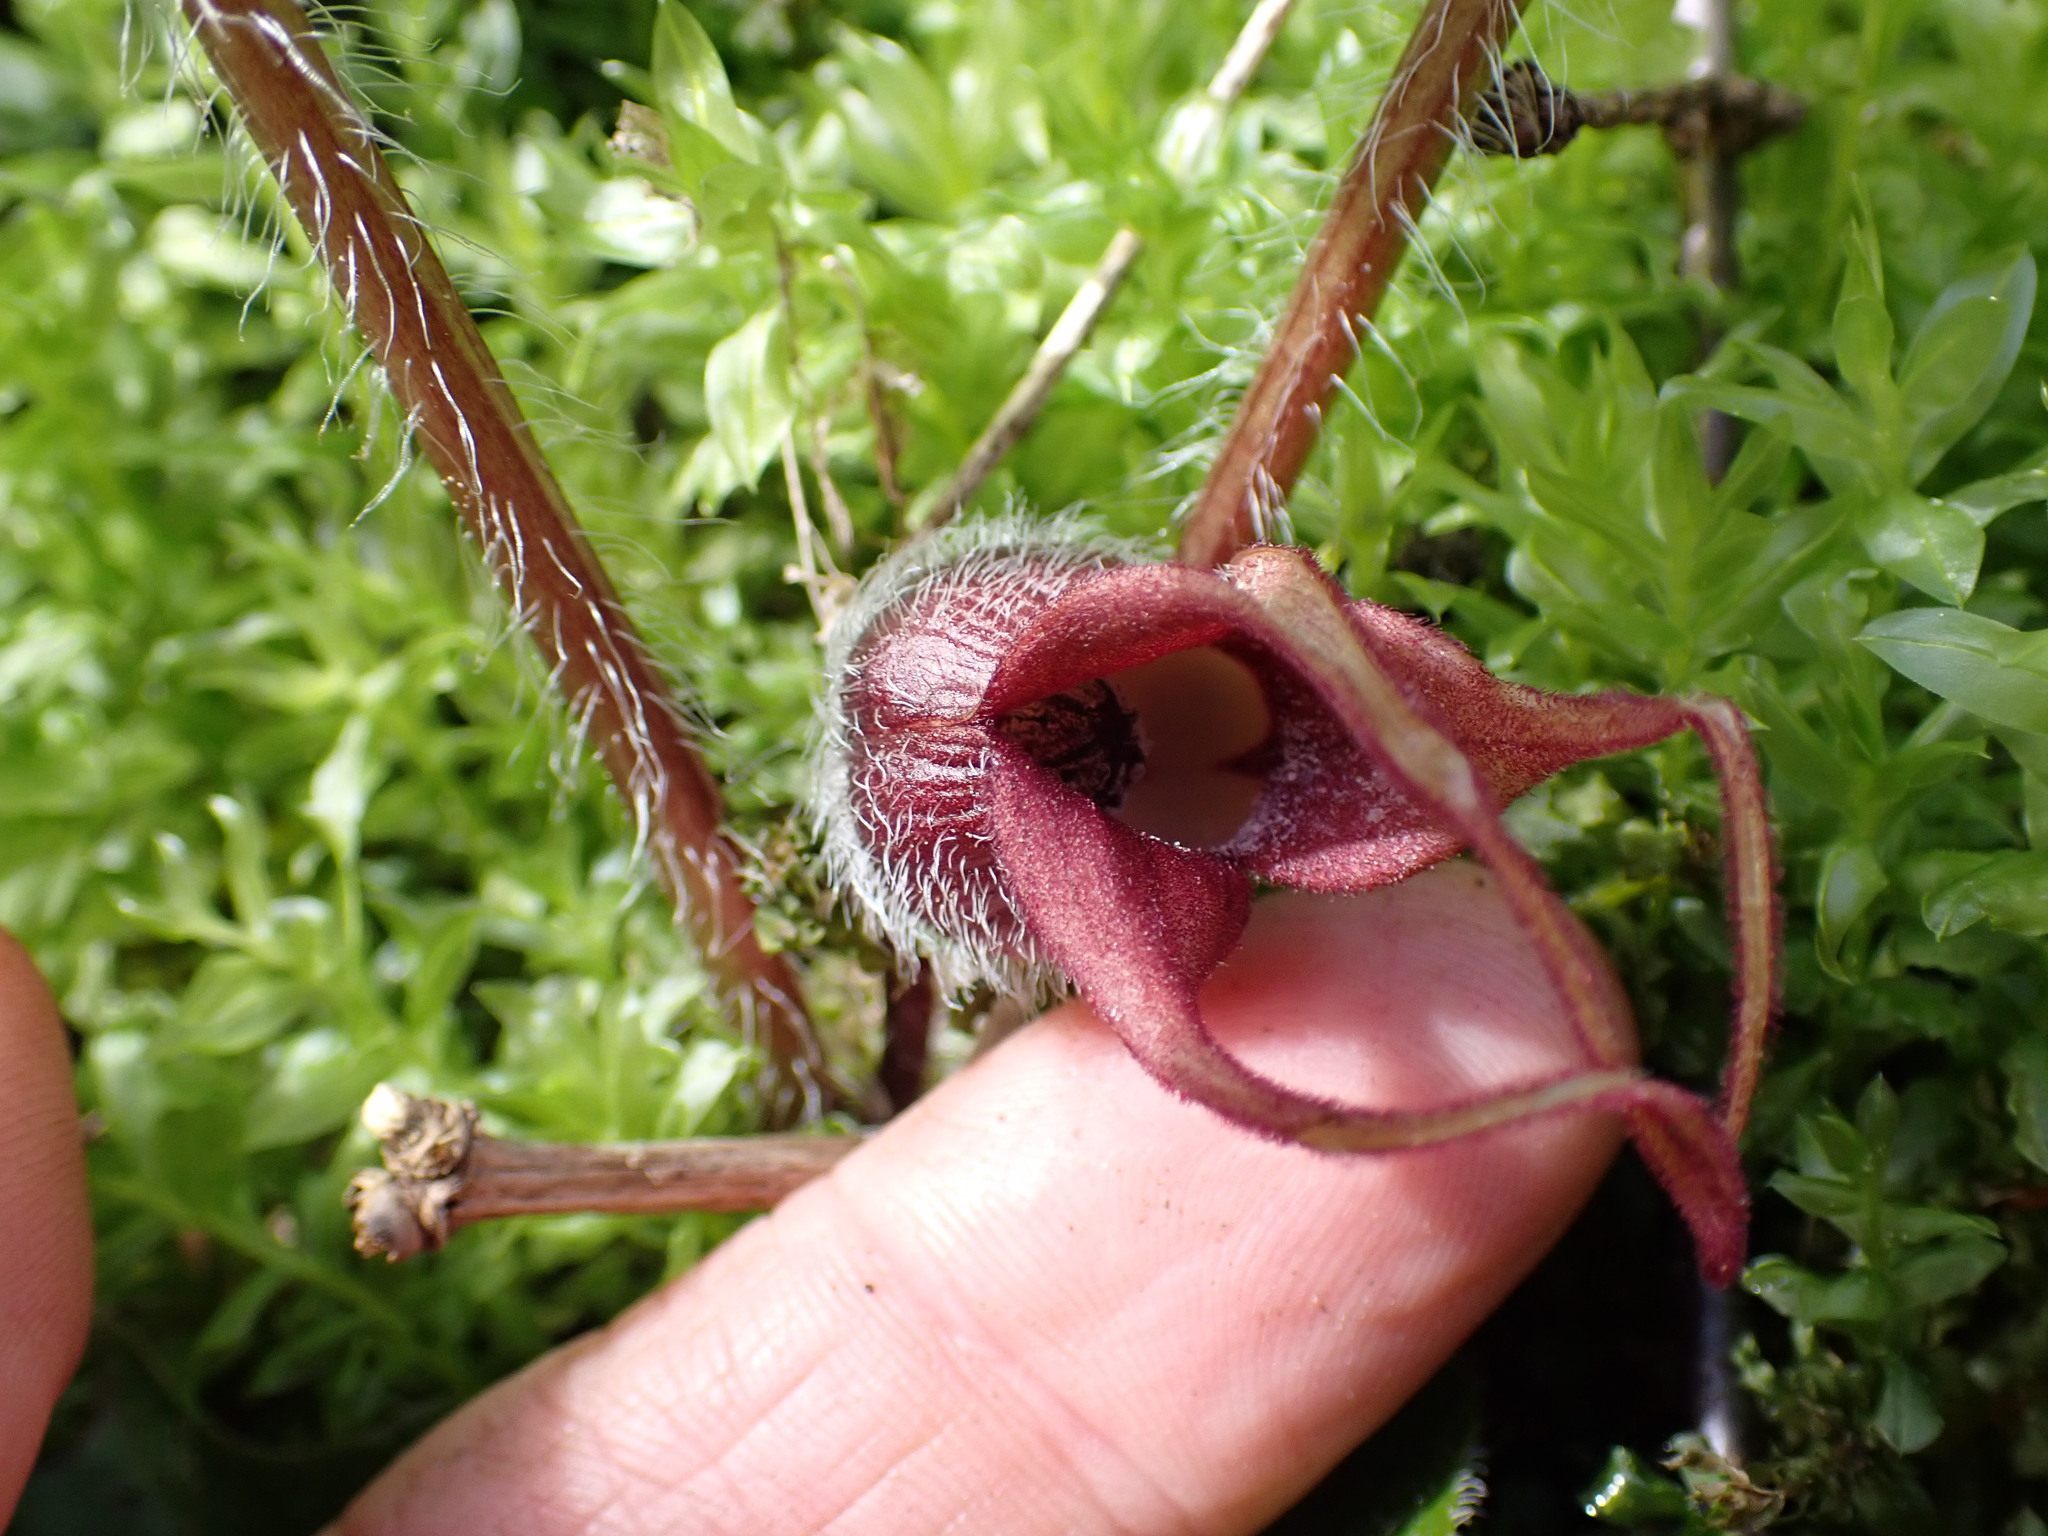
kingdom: Plantae
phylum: Tracheophyta
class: Magnoliopsida
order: Piperales
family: Aristolochiaceae
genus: Asarum
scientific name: Asarum caudatum
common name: Wild ginger
